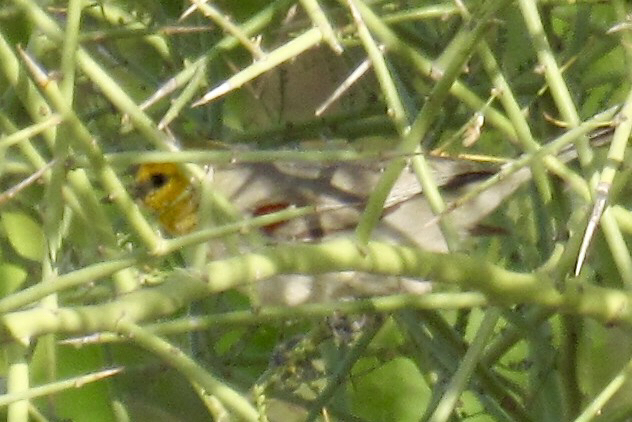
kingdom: Animalia
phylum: Chordata
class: Aves
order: Passeriformes
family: Remizidae
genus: Auriparus
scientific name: Auriparus flaviceps
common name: Verdin
